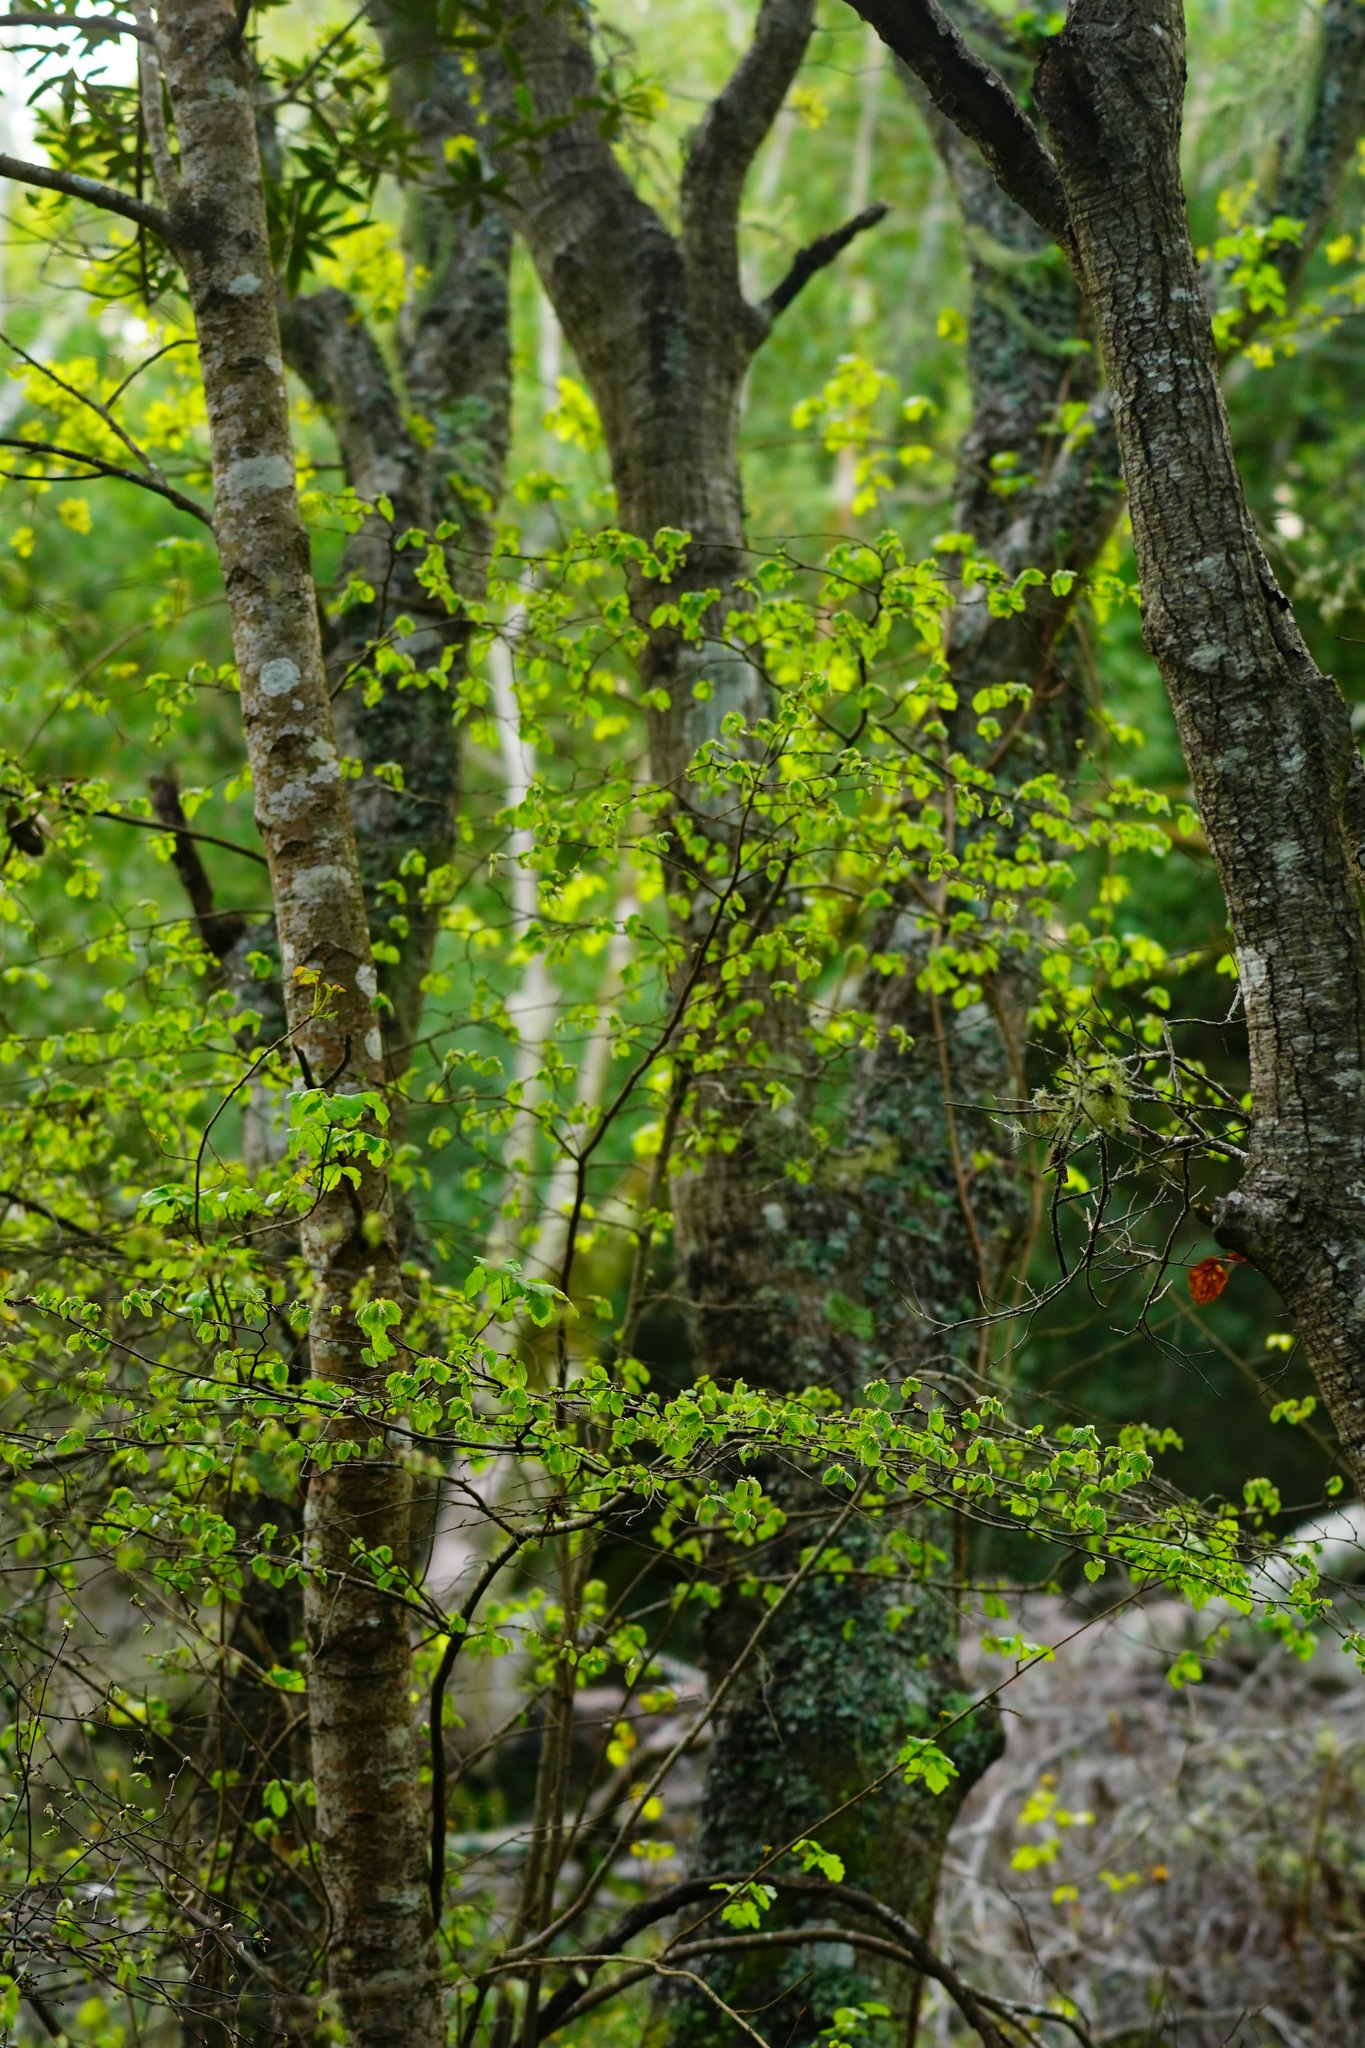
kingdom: Plantae
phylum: Tracheophyta
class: Magnoliopsida
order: Fagales
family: Betulaceae
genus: Corylus
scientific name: Corylus cornuta
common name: Beaked hazel
